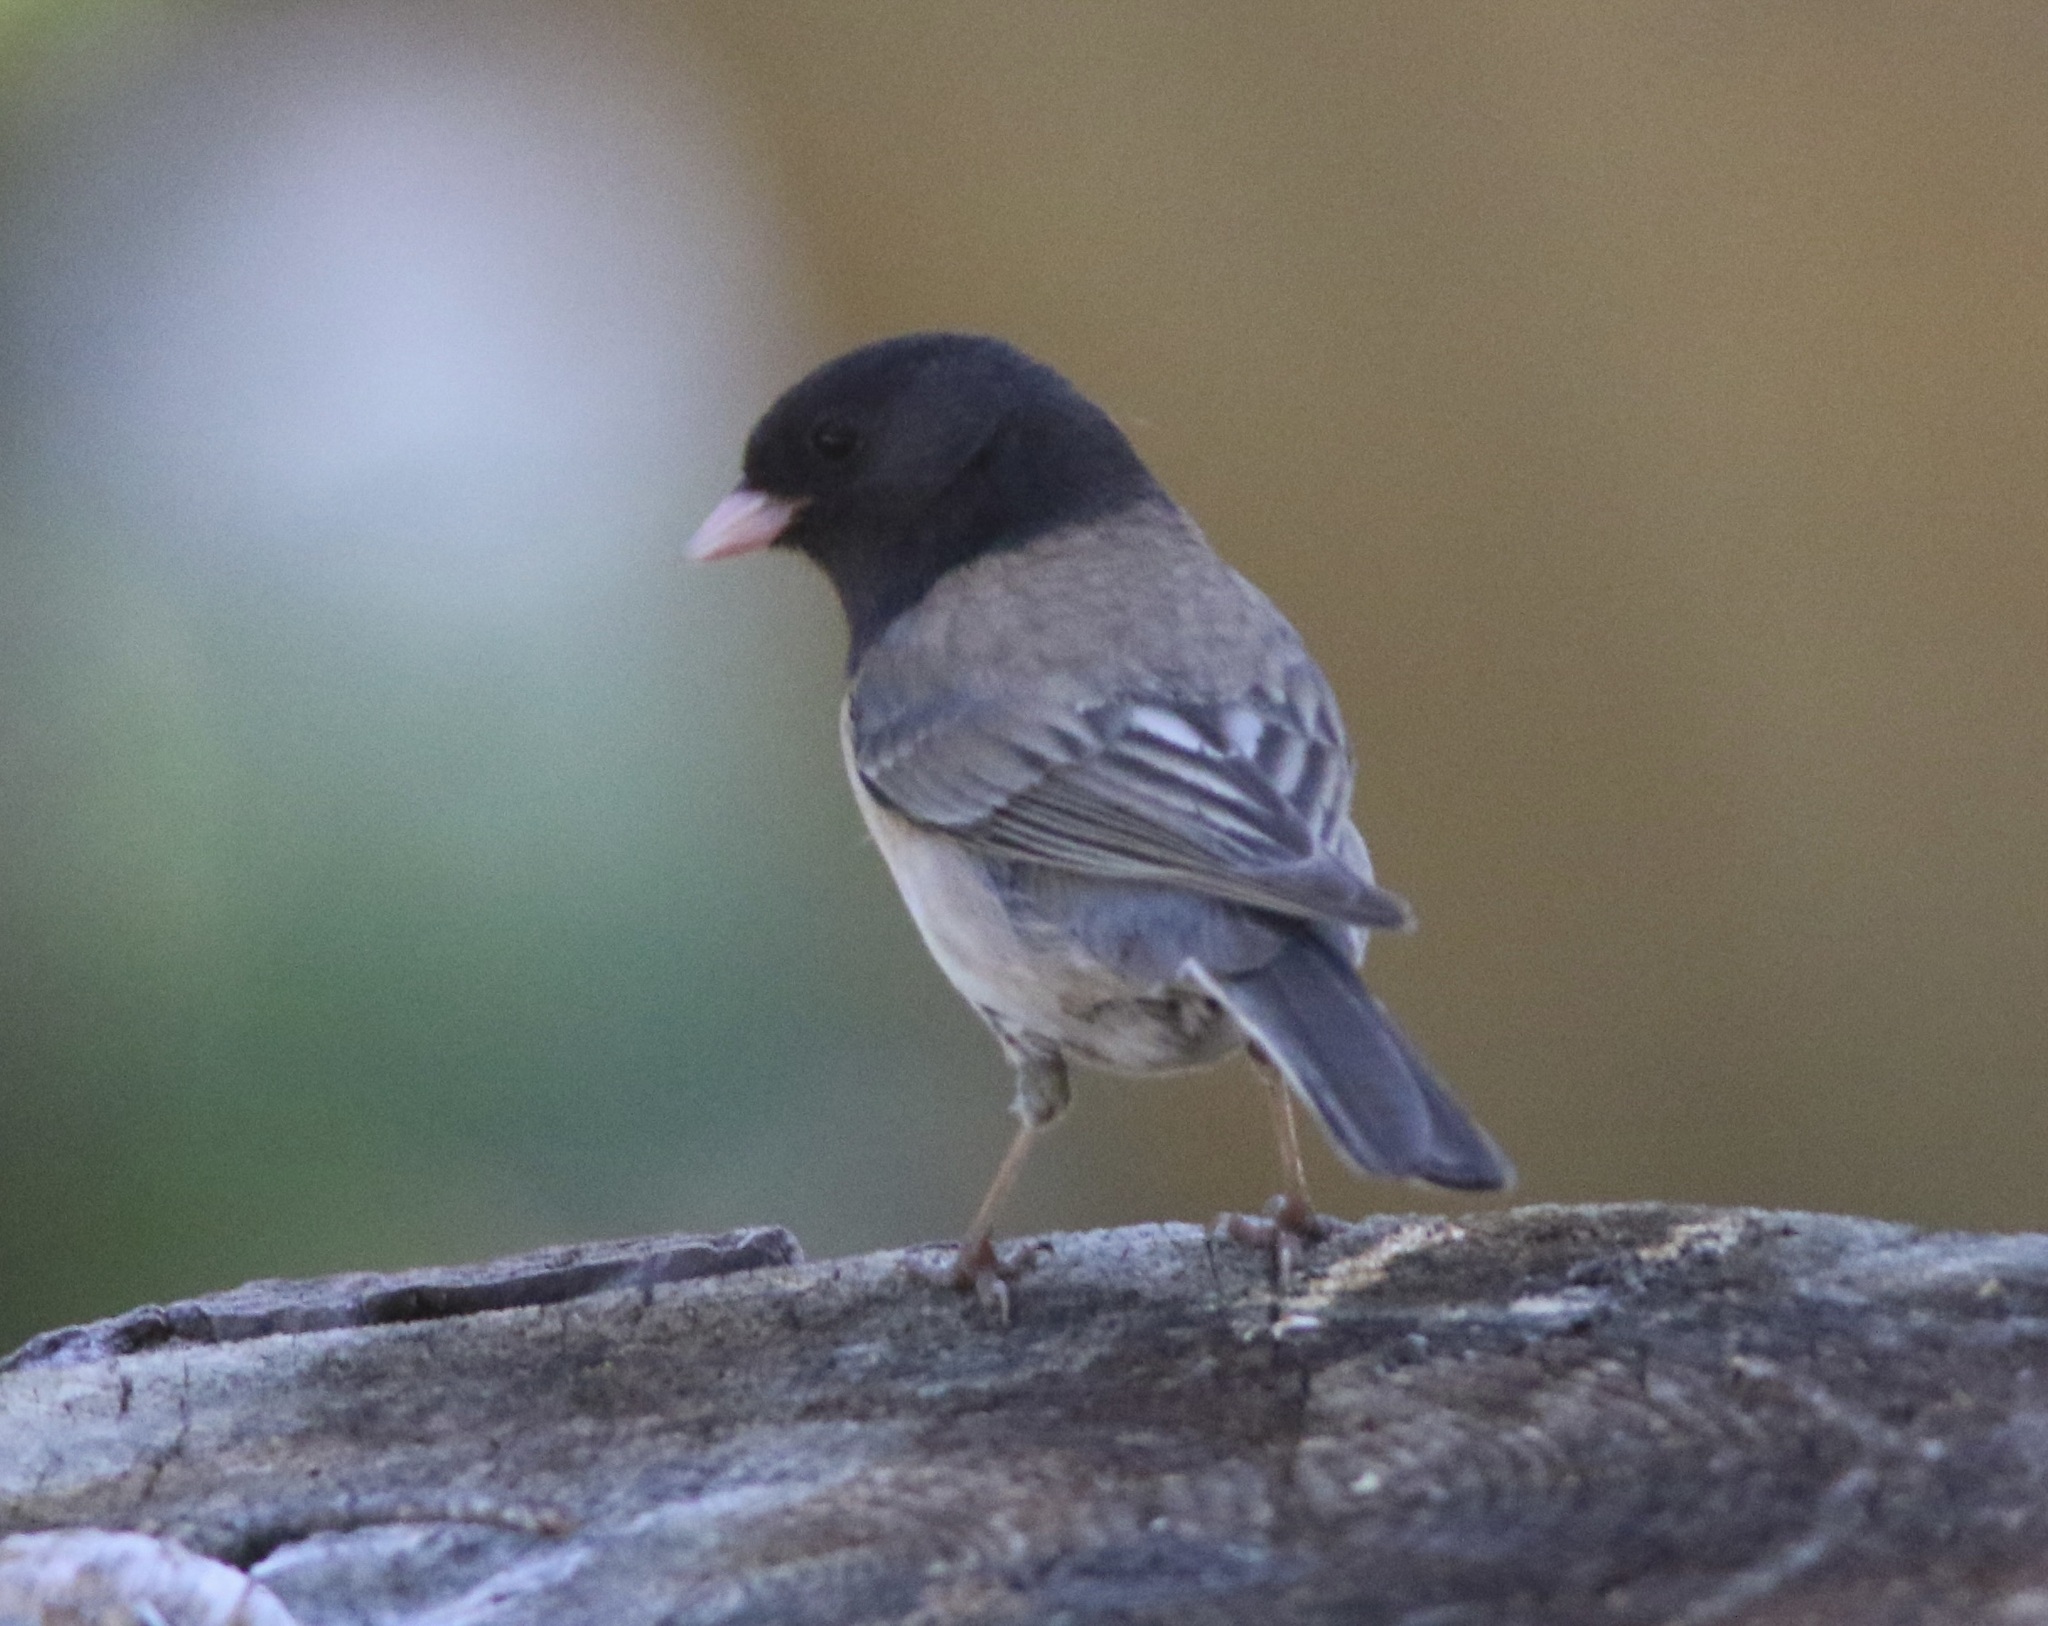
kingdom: Animalia
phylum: Chordata
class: Aves
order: Passeriformes
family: Passerellidae
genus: Junco
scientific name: Junco hyemalis
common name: Dark-eyed junco
